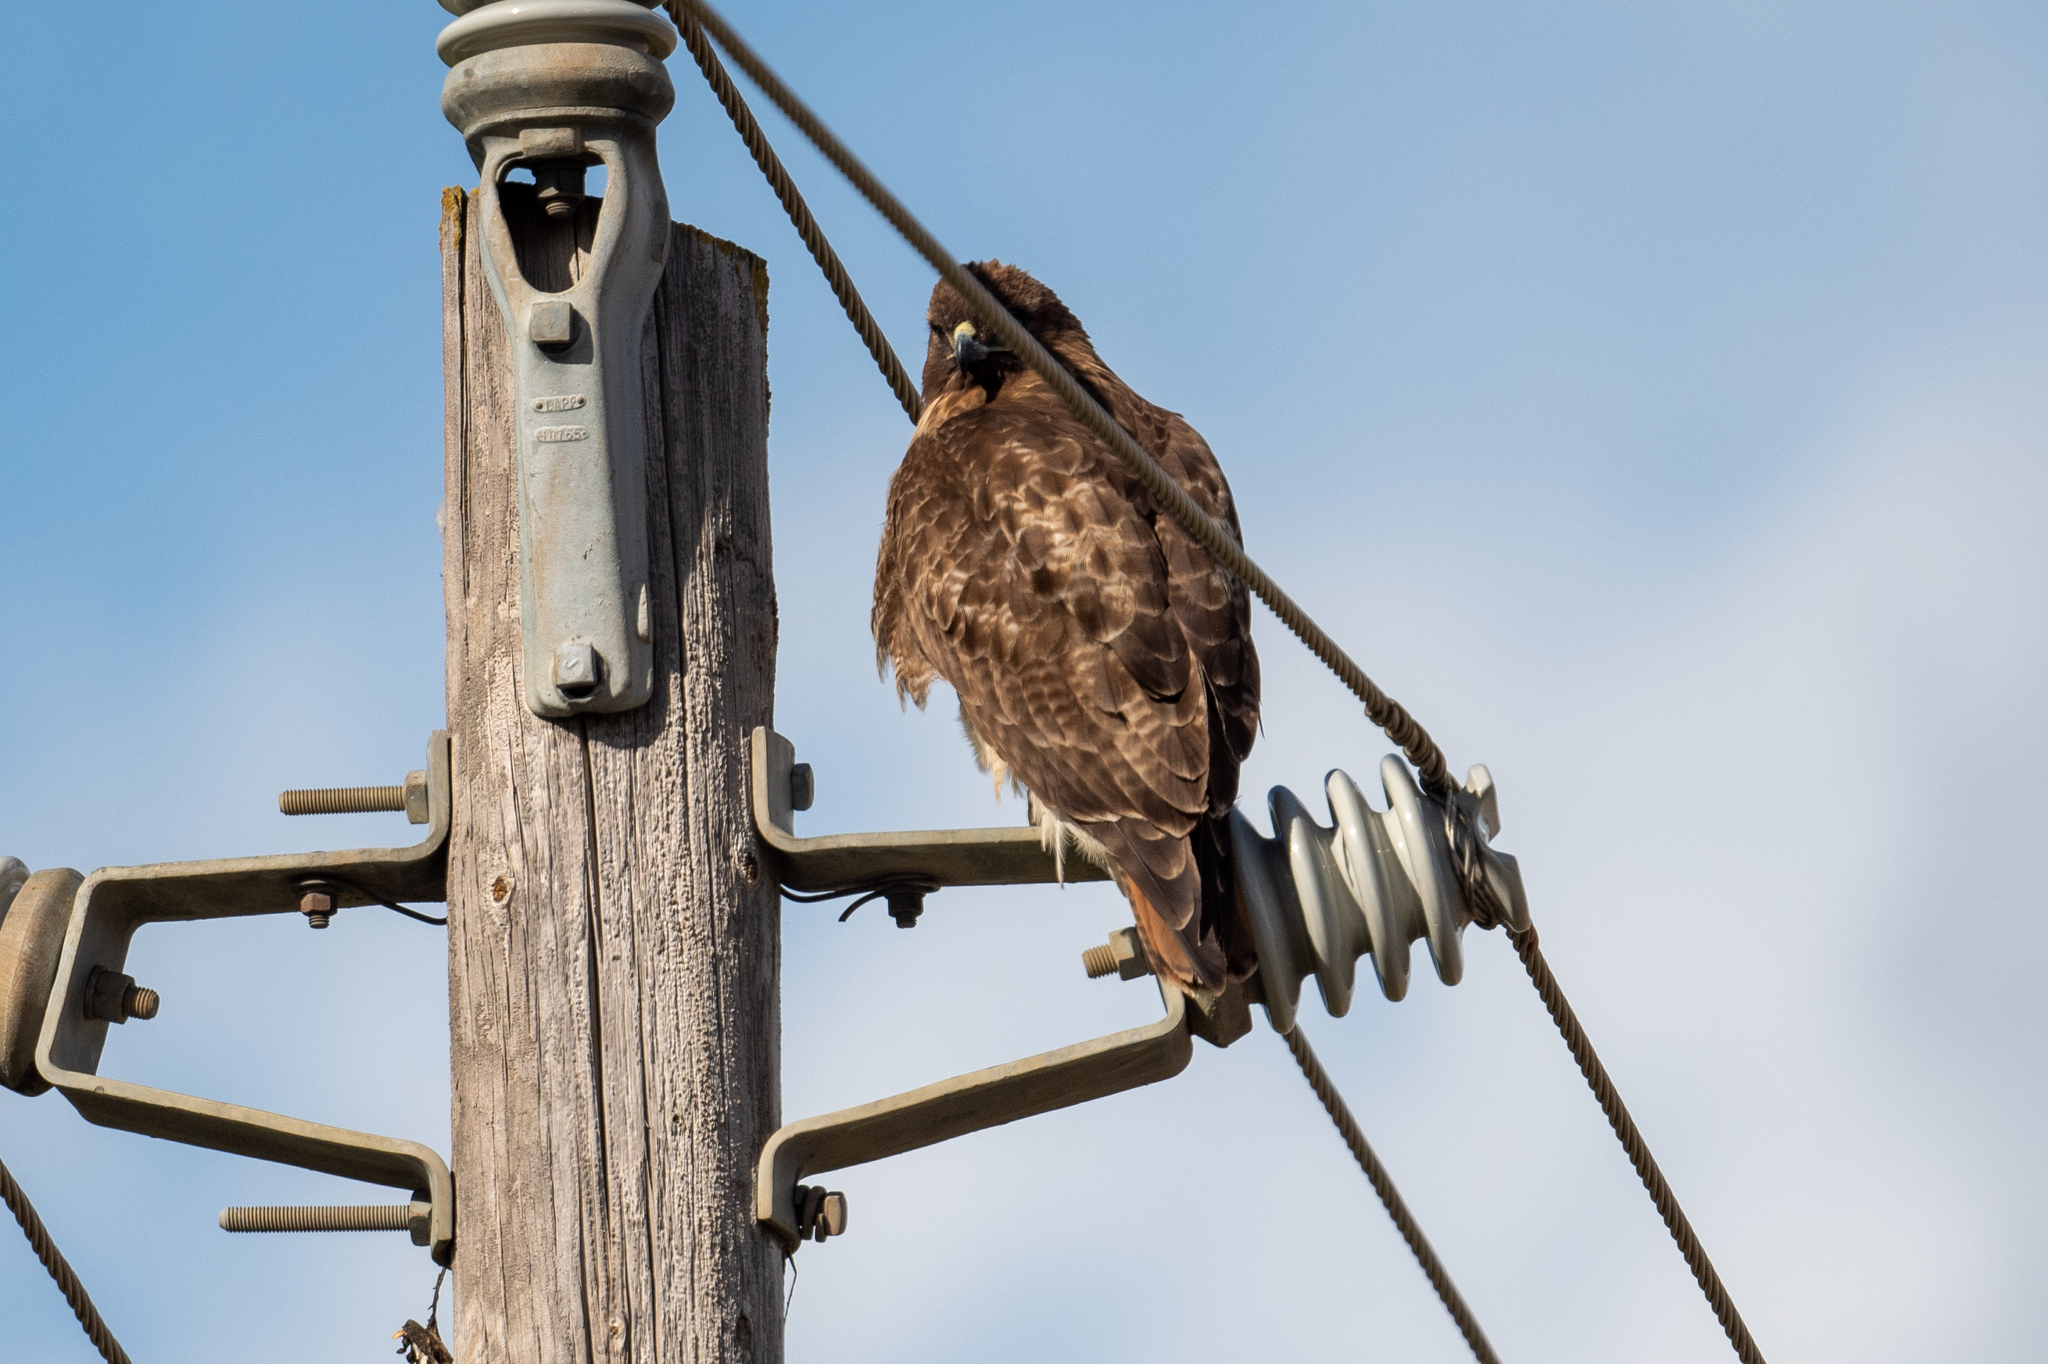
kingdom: Animalia
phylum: Chordata
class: Aves
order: Accipitriformes
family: Accipitridae
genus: Buteo
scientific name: Buteo jamaicensis
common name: Red-tailed hawk
